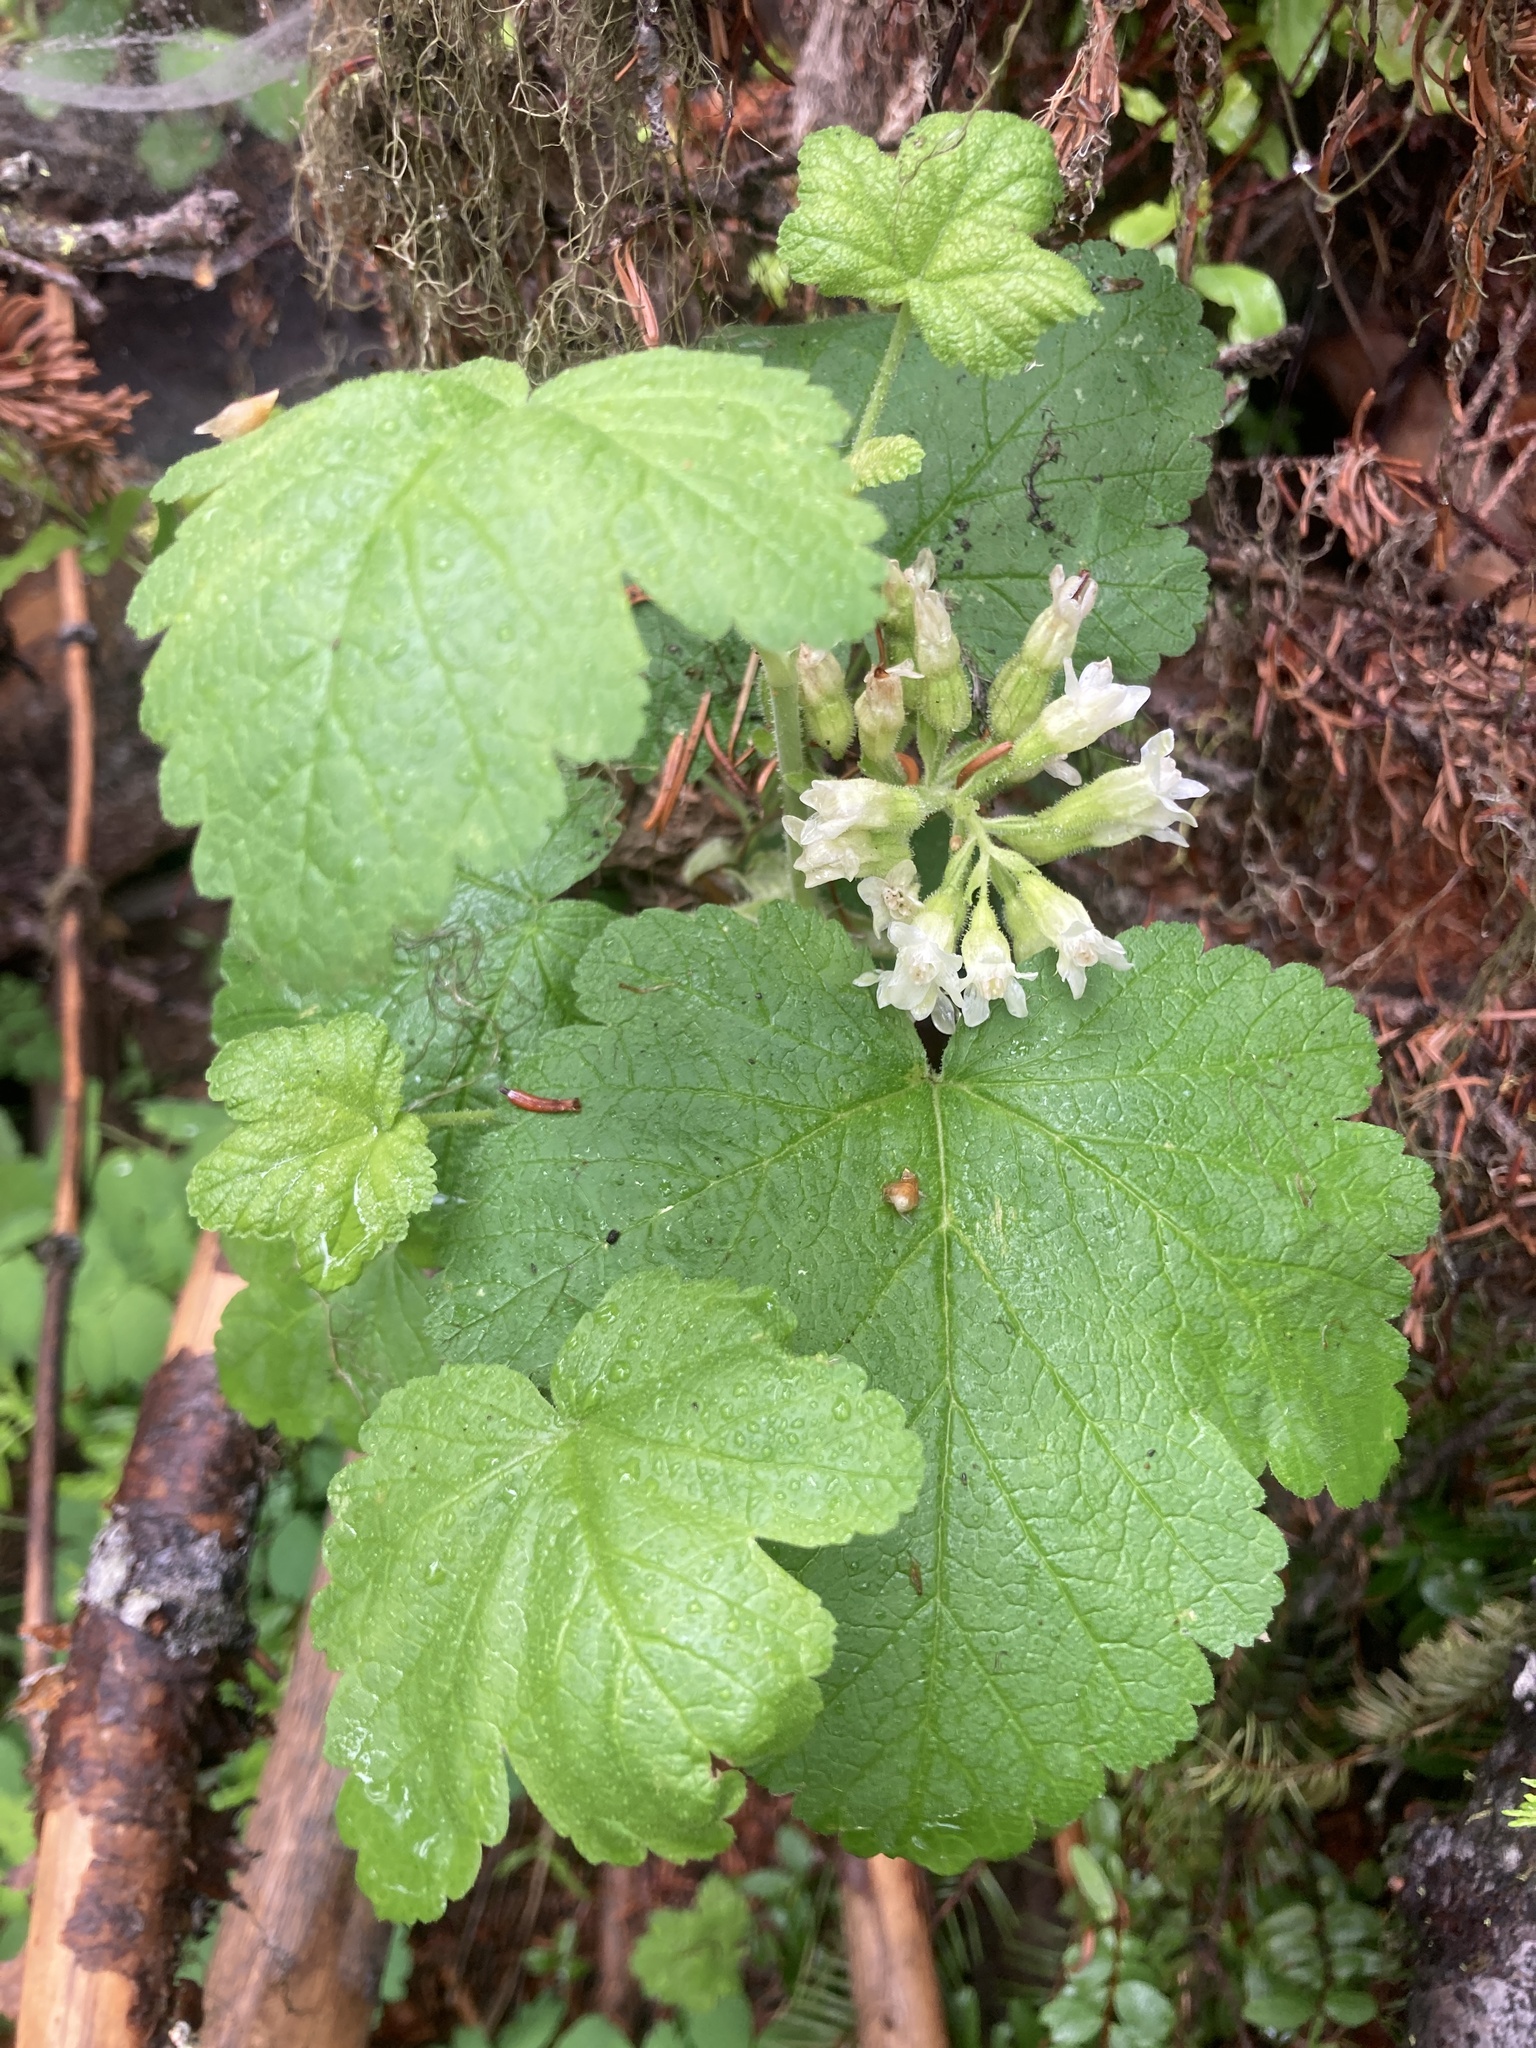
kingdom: Plantae
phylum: Tracheophyta
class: Magnoliopsida
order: Saxifragales
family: Grossulariaceae
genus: Ribes
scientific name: Ribes viscosissimum
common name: Sticky currant
